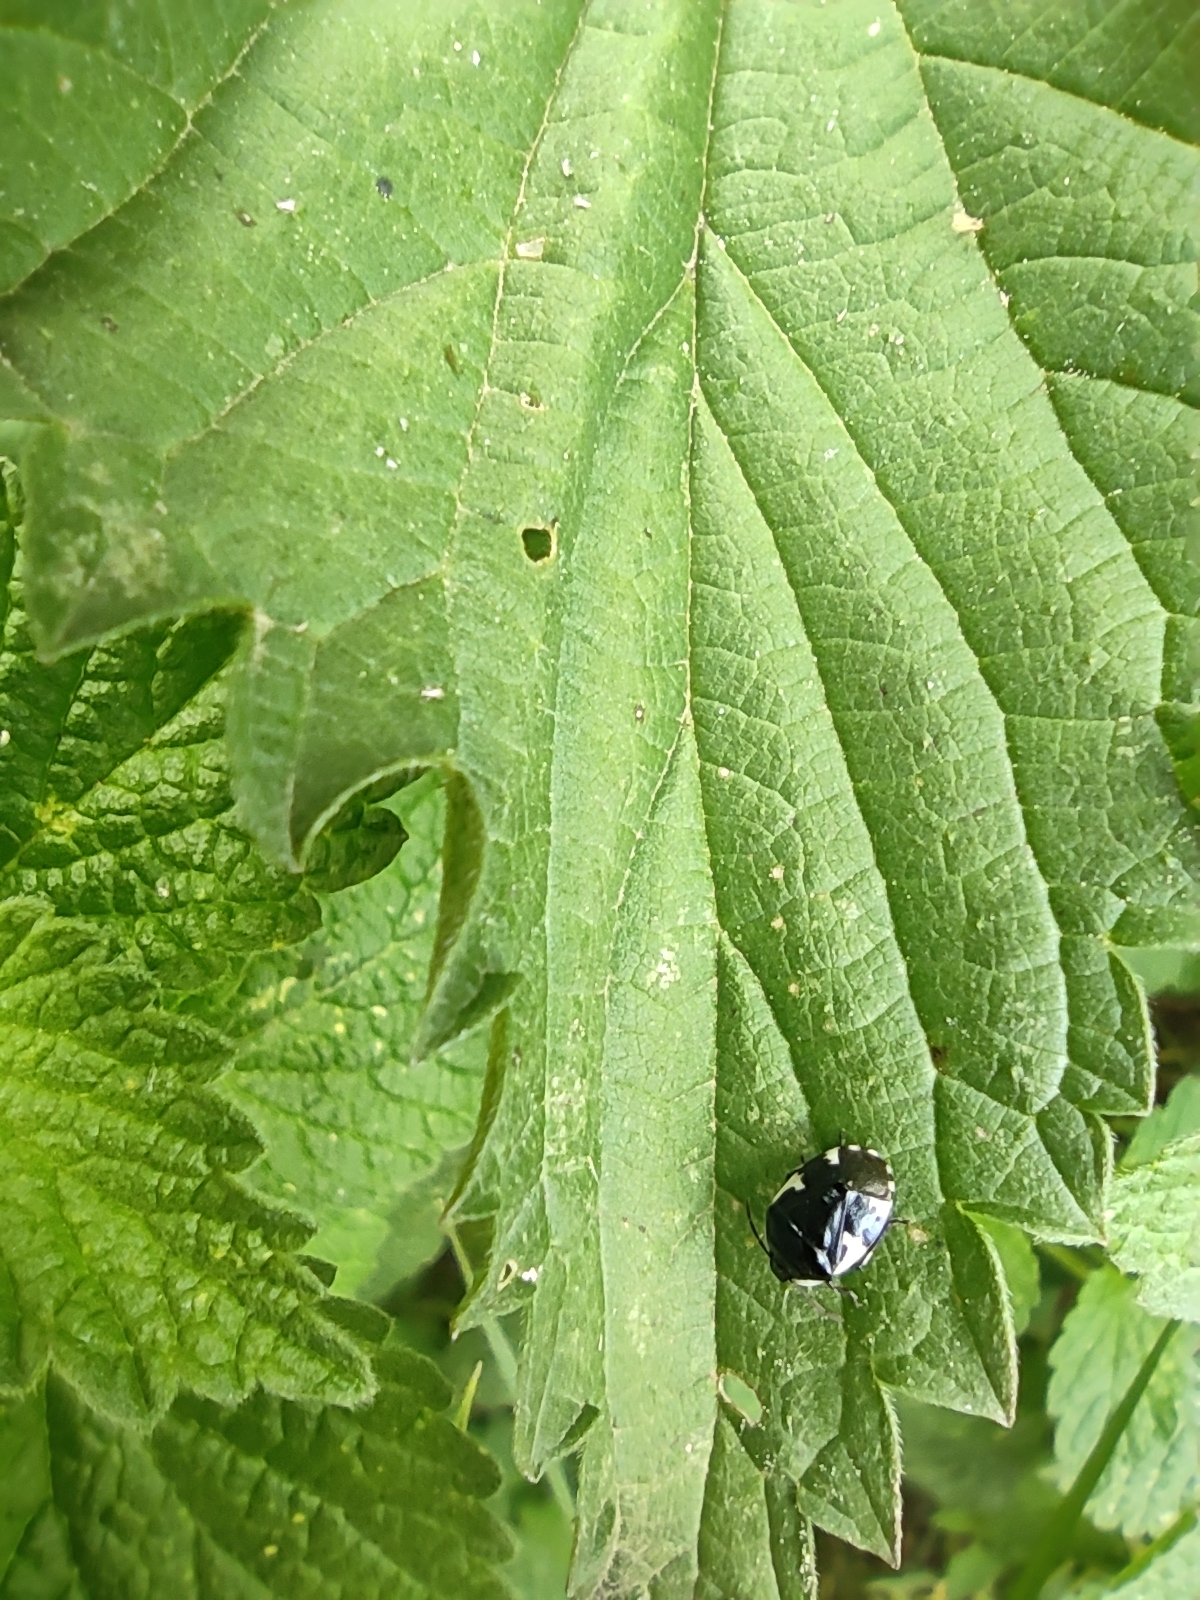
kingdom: Animalia
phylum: Arthropoda
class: Insecta
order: Hemiptera
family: Cydnidae
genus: Tritomegas
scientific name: Tritomegas sexmaculatus
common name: Rambur's pied shieldbug
